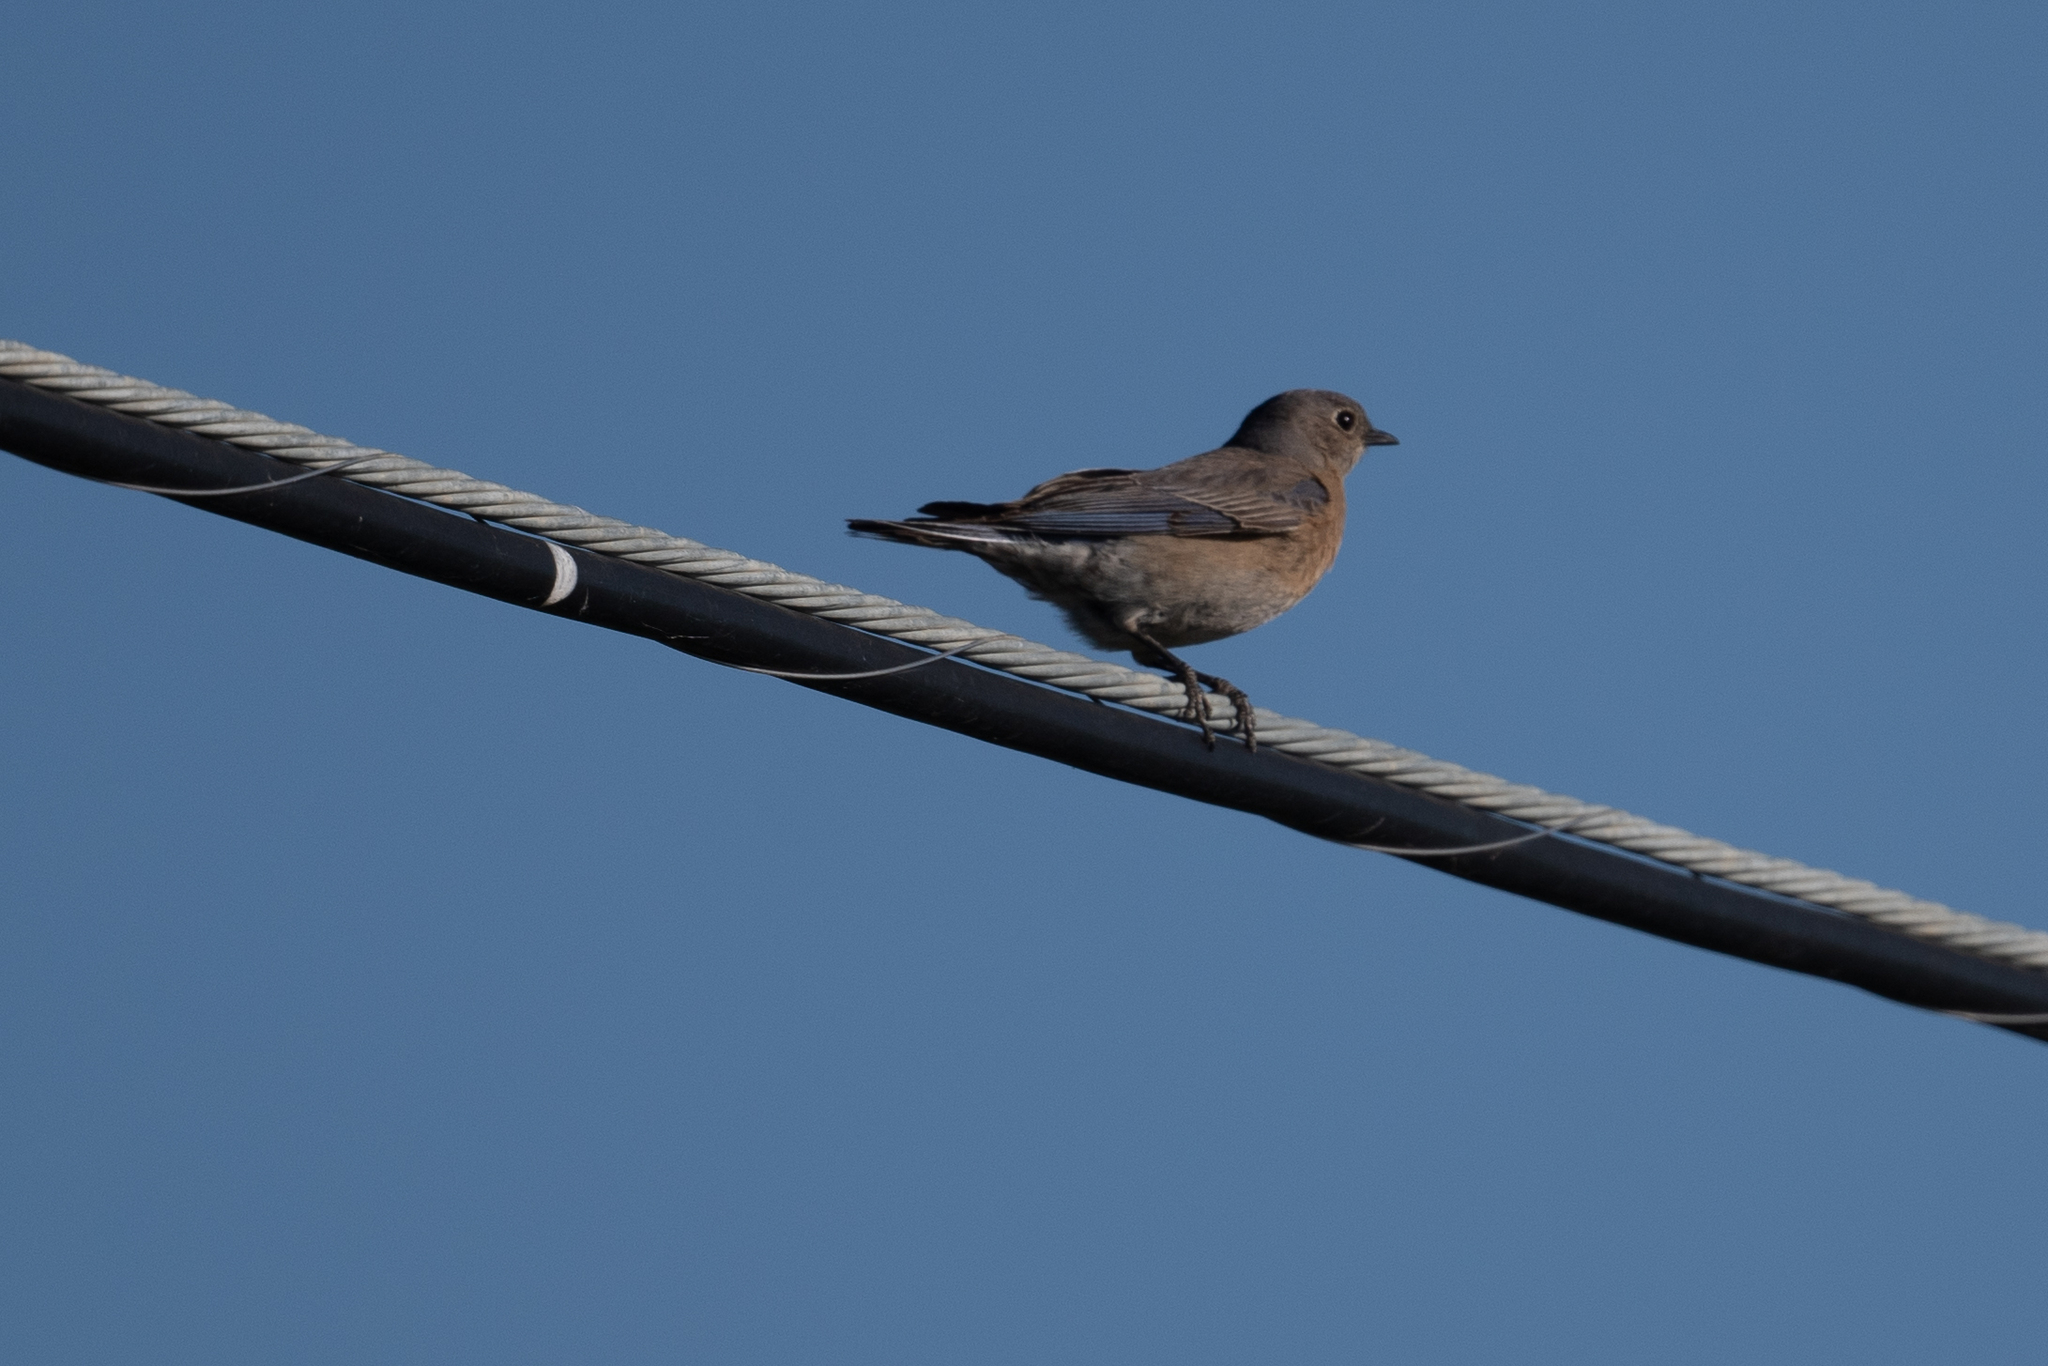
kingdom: Animalia
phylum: Chordata
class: Aves
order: Passeriformes
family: Turdidae
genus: Sialia
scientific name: Sialia mexicana
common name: Western bluebird
